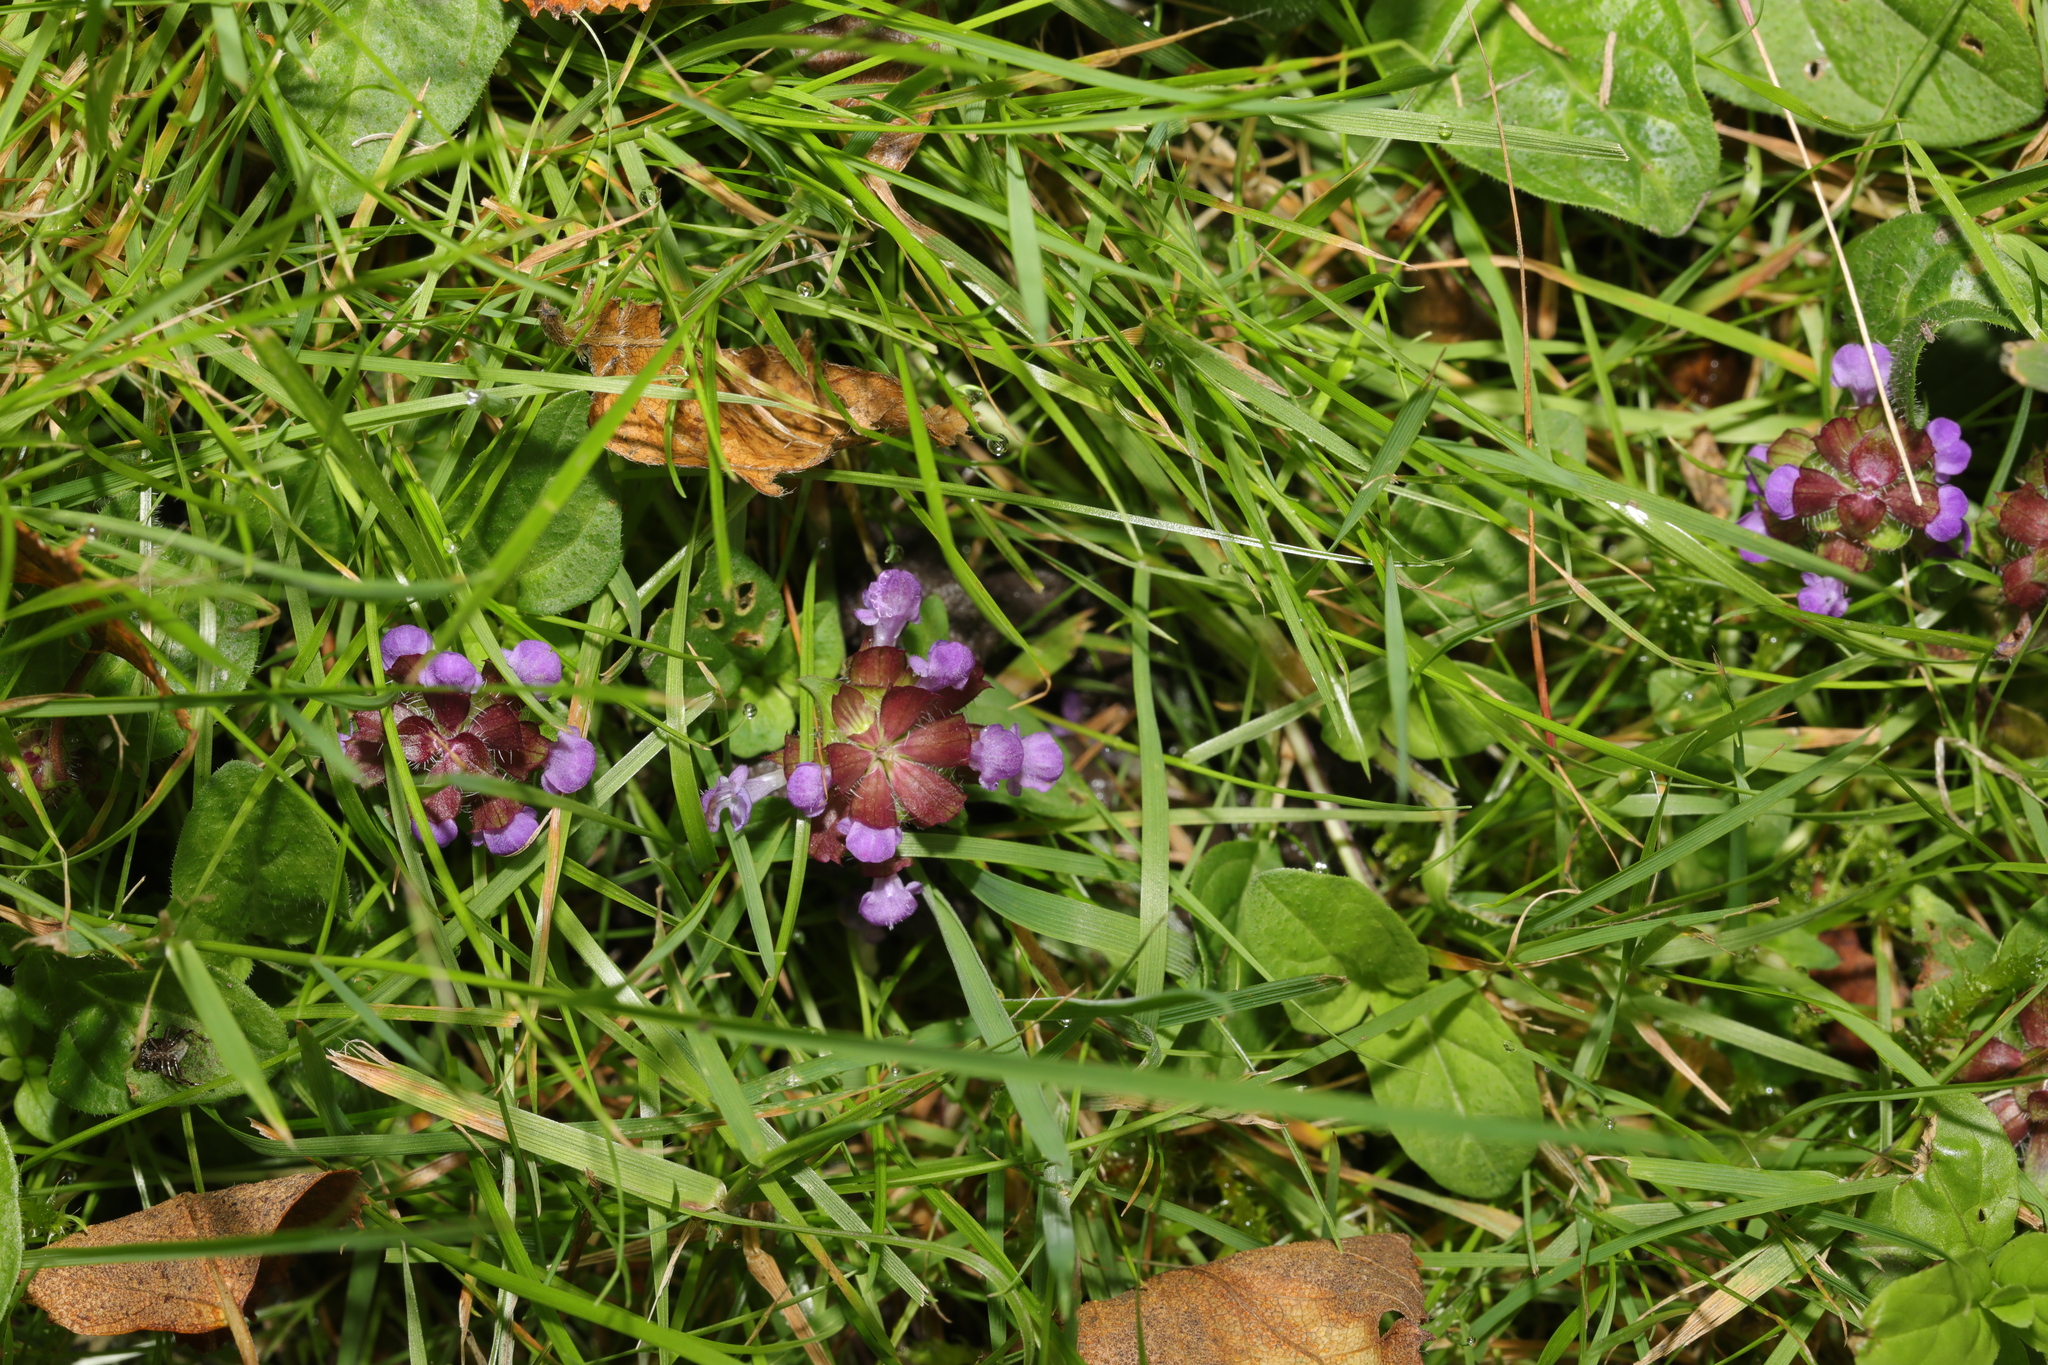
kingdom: Plantae
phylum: Tracheophyta
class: Magnoliopsida
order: Lamiales
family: Lamiaceae
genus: Prunella
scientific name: Prunella vulgaris
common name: Heal-all
